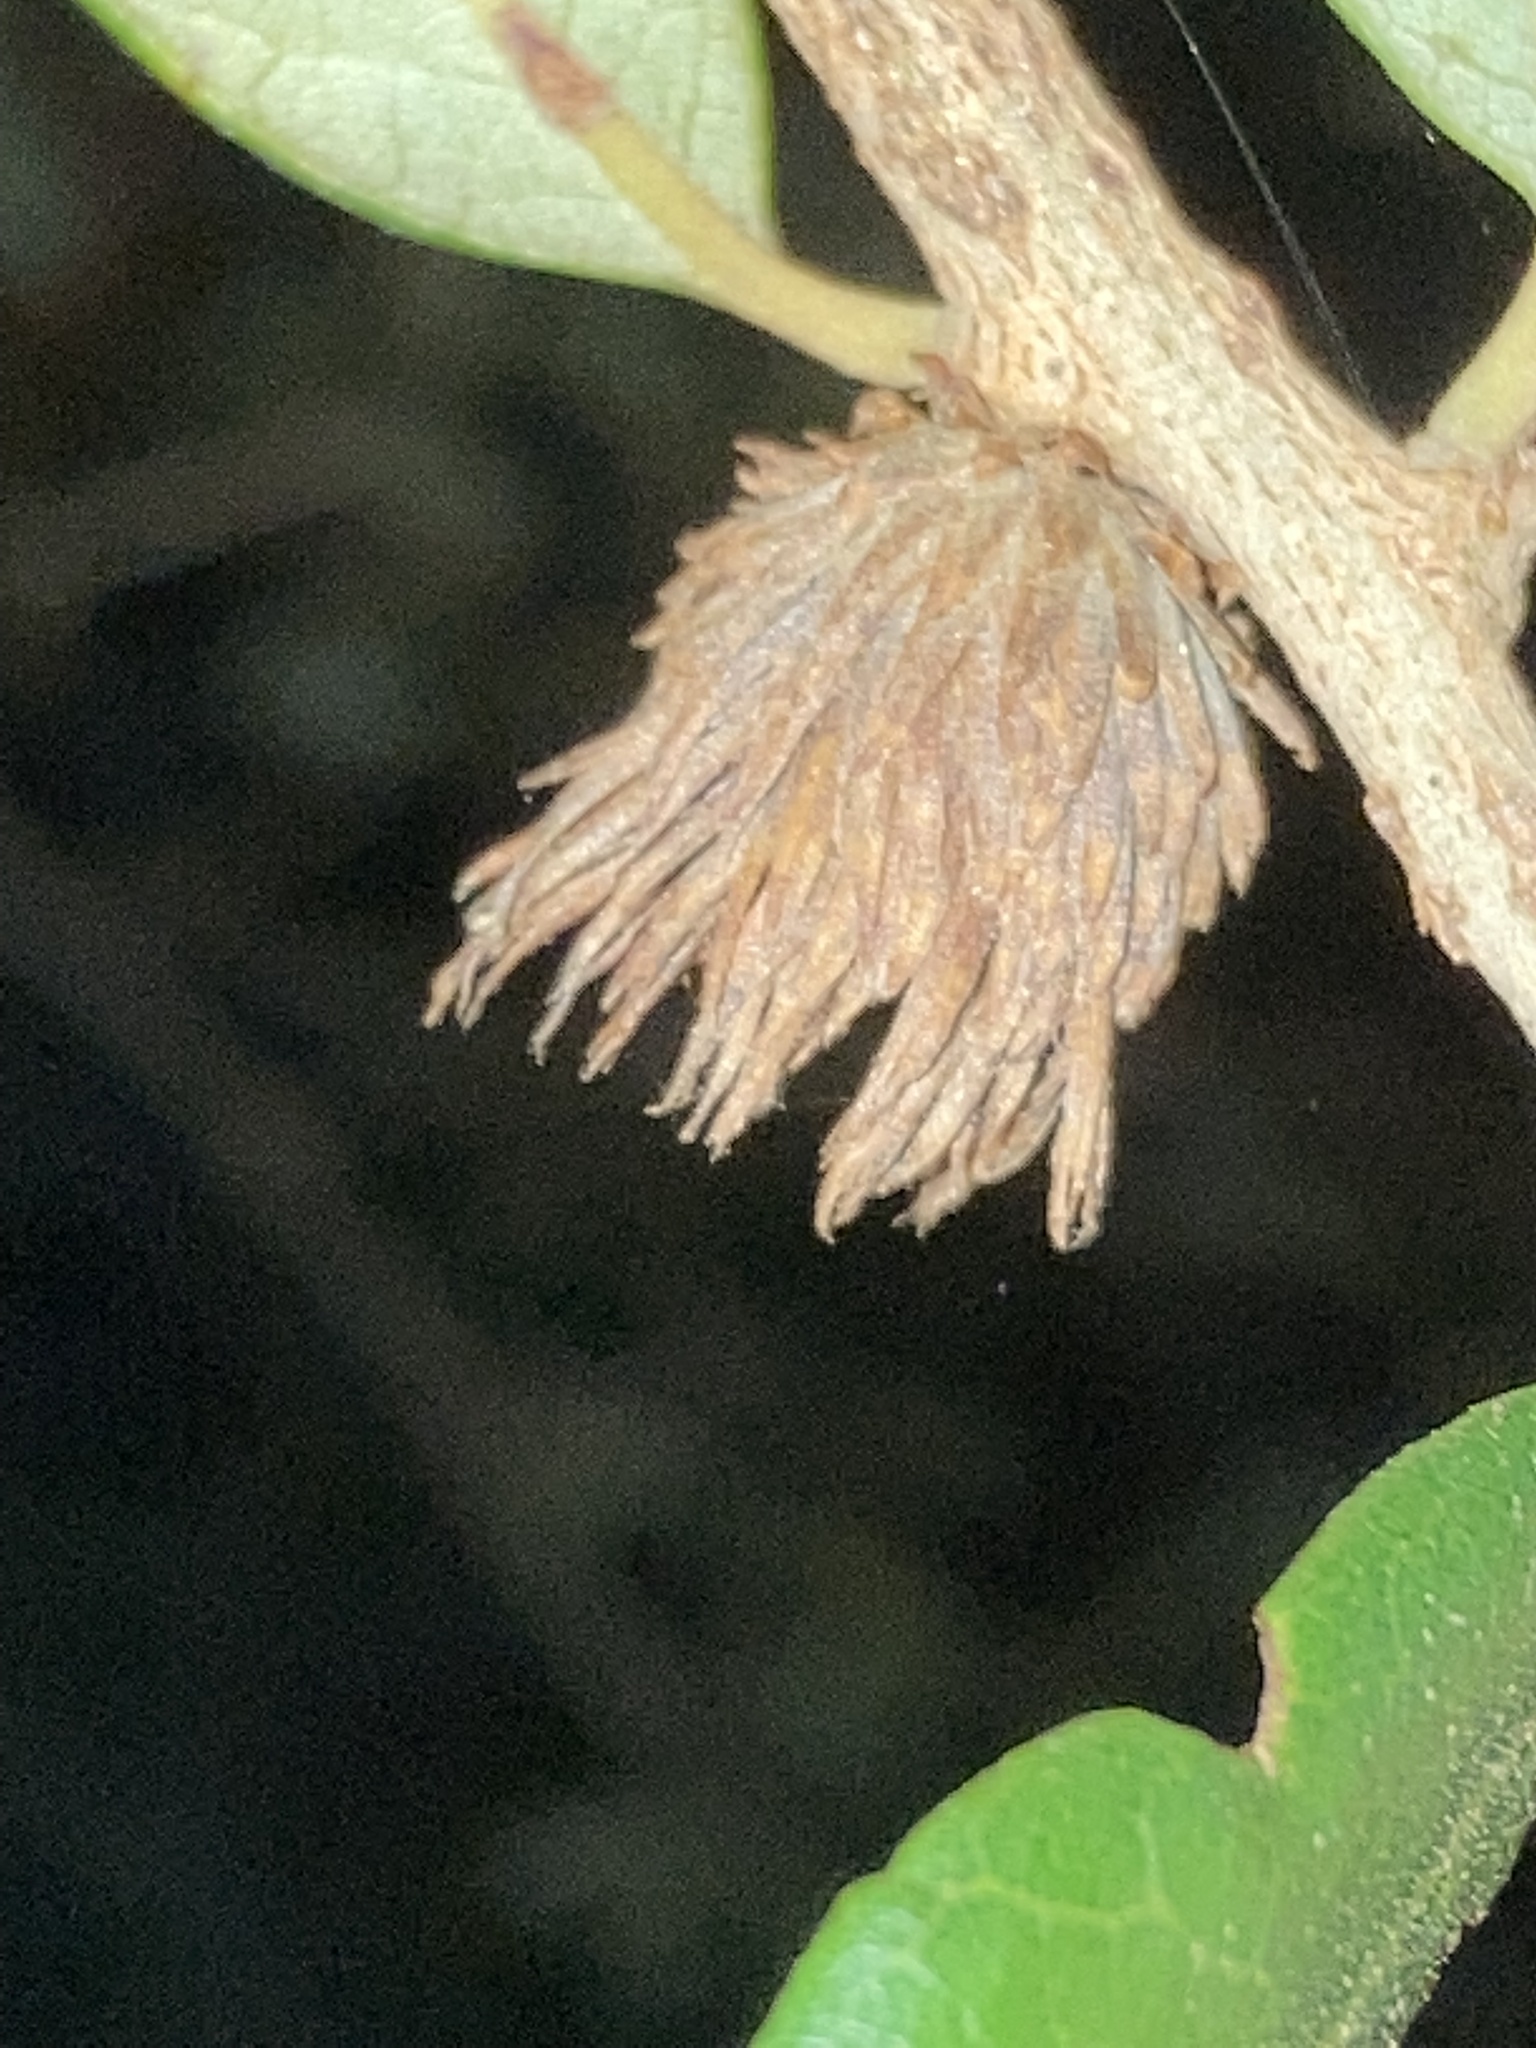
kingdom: Animalia
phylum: Arthropoda
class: Insecta
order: Hymenoptera
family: Cynipidae
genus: Andricus
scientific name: Andricus quercusfoliatus
